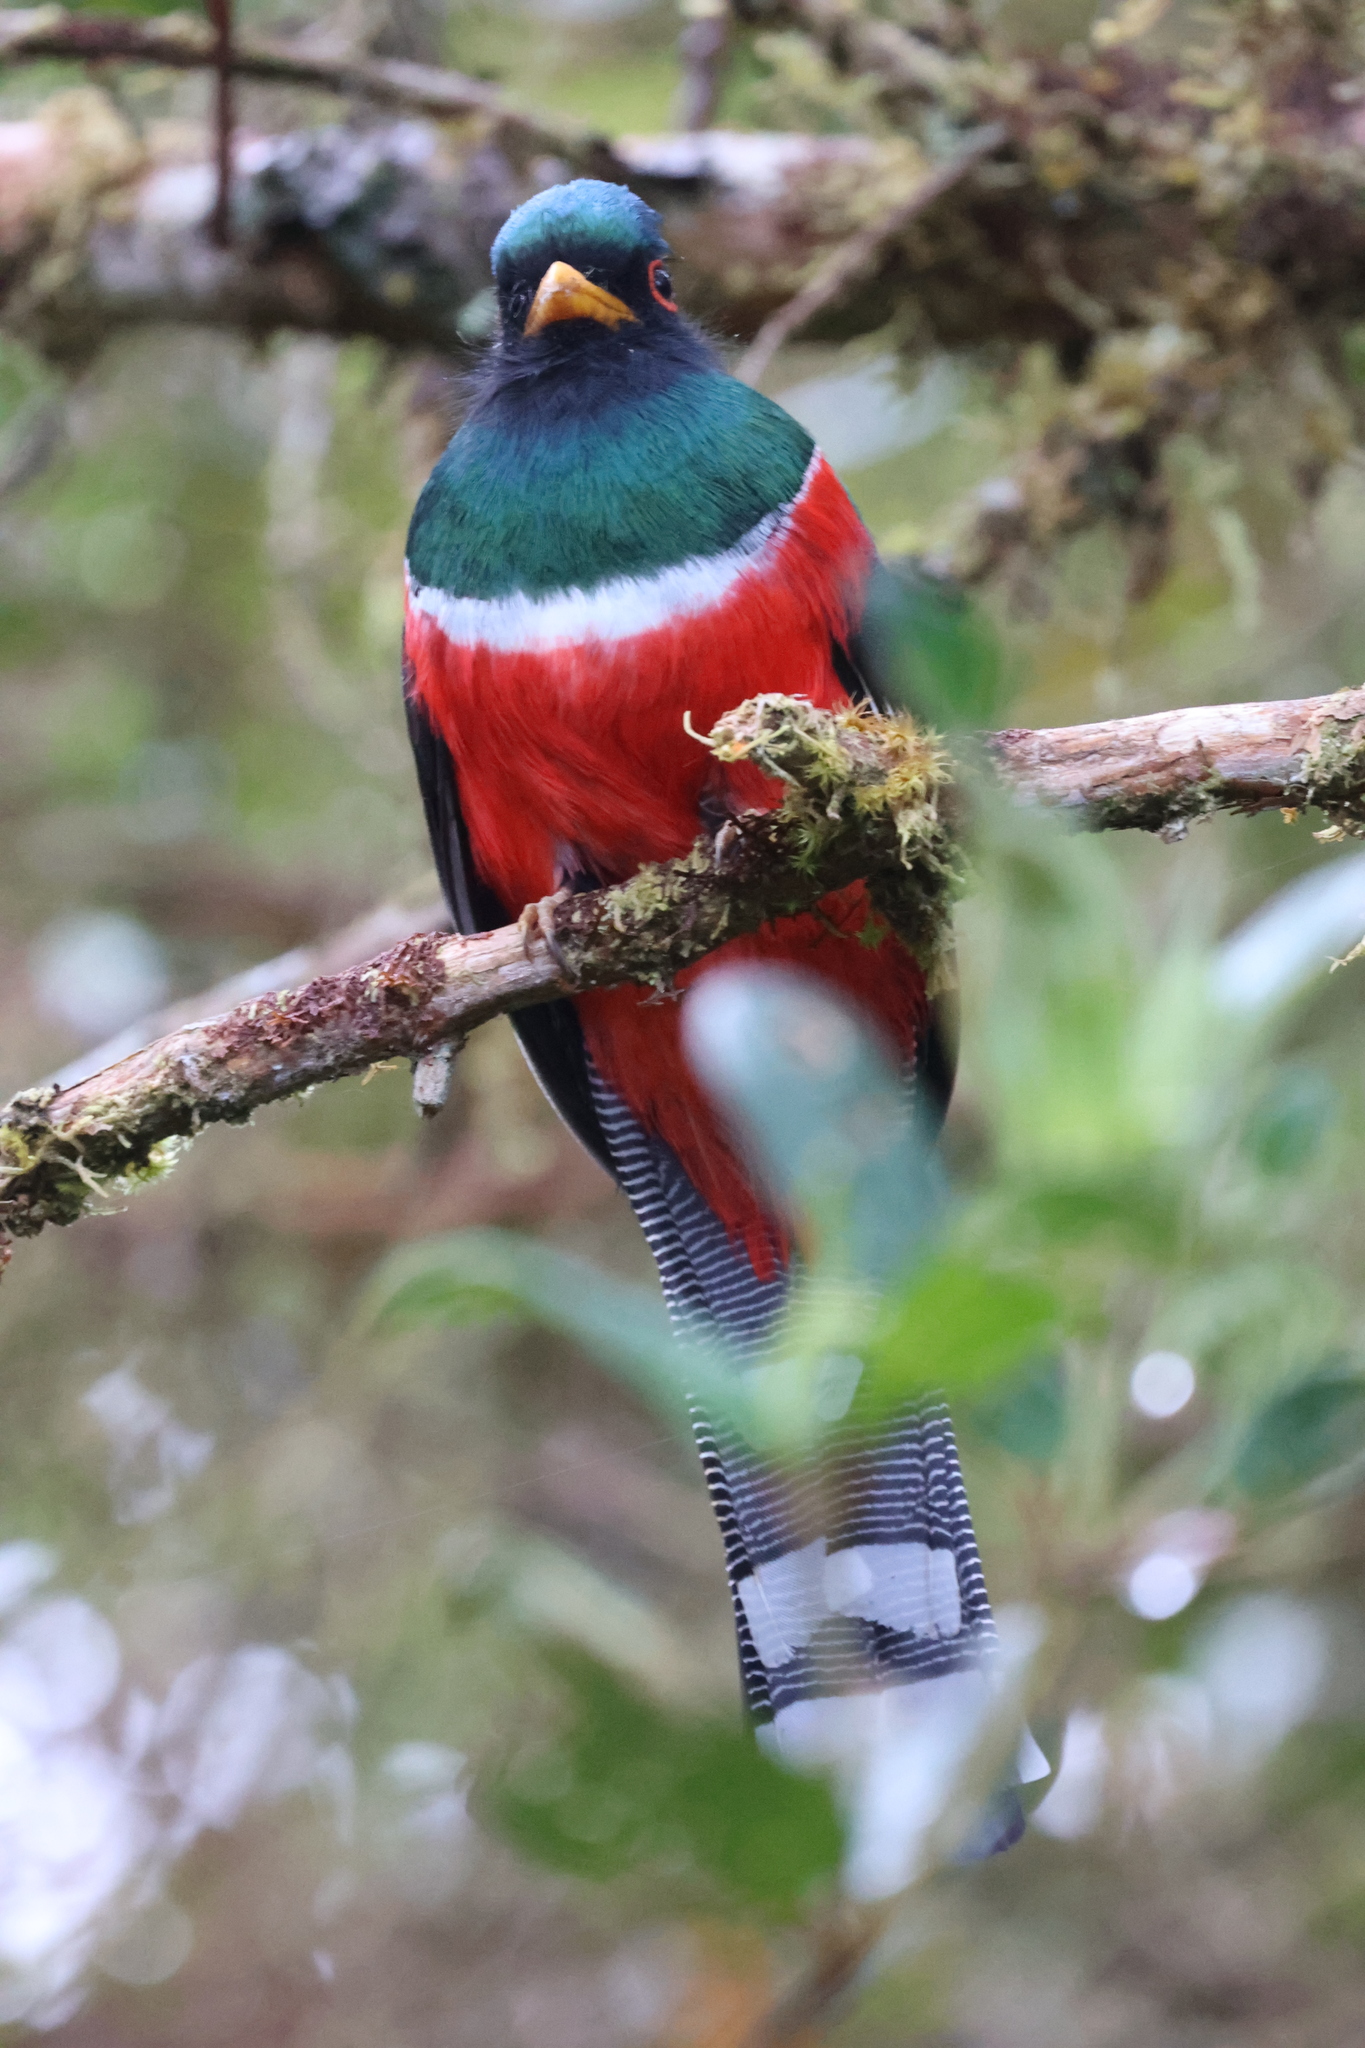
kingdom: Animalia
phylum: Chordata
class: Aves
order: Trogoniformes
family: Trogonidae
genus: Trogon
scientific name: Trogon personatus
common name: Masked trogon
